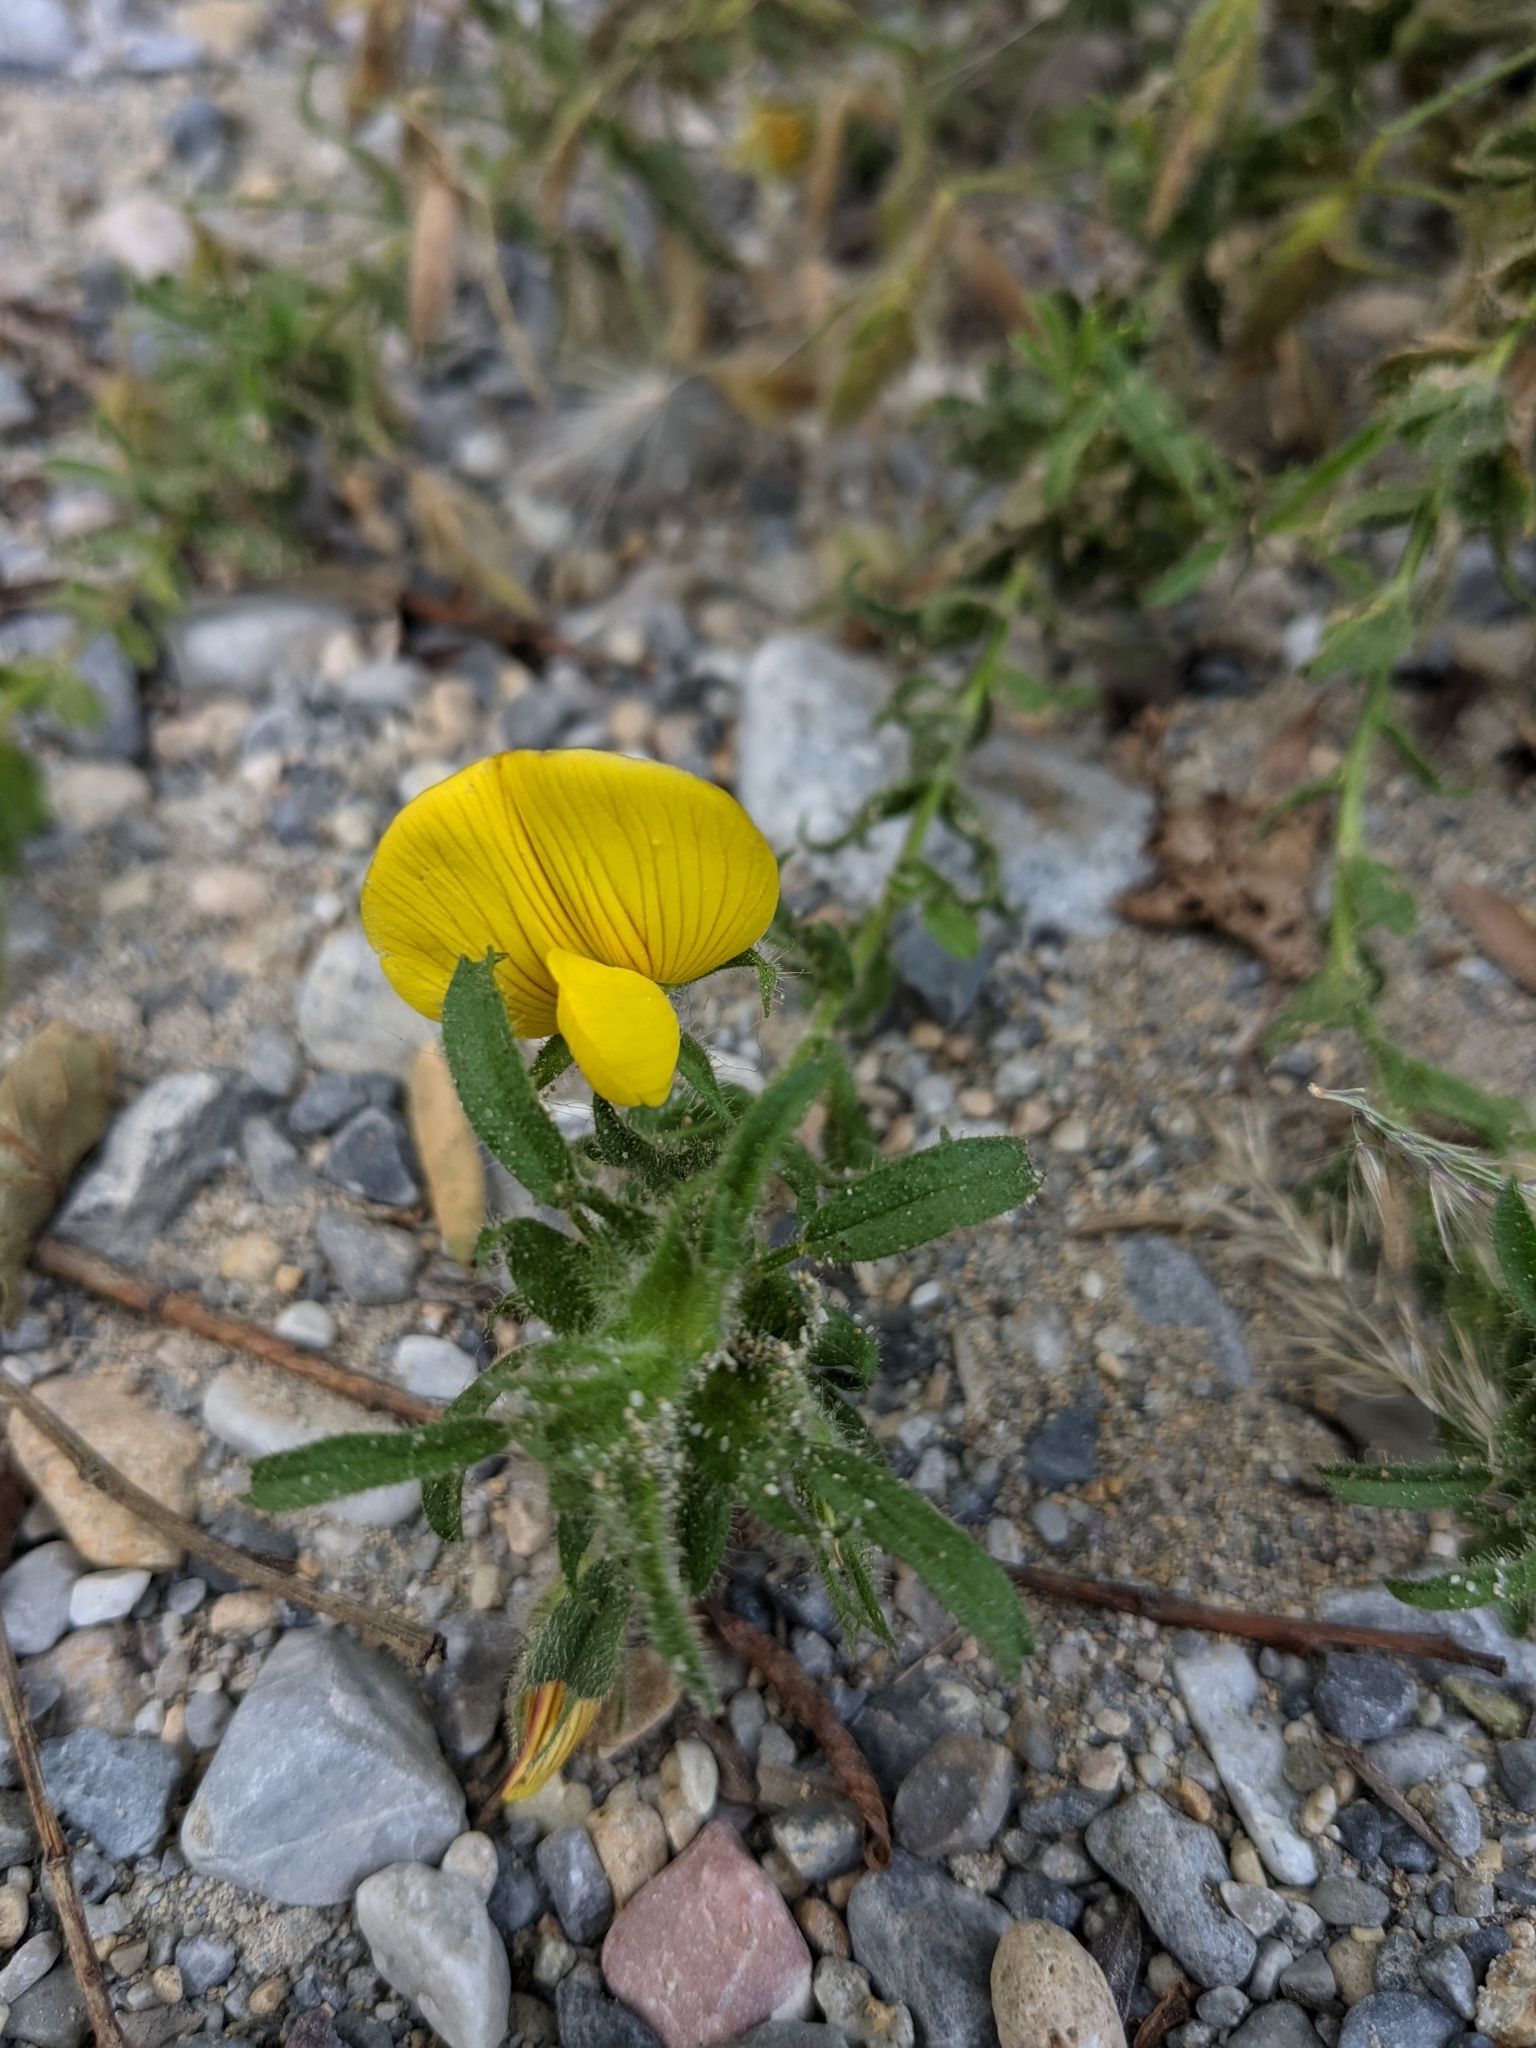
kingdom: Plantae
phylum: Tracheophyta
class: Magnoliopsida
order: Fabales
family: Fabaceae
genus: Ononis
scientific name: Ononis natrix
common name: Yellow restharrow
